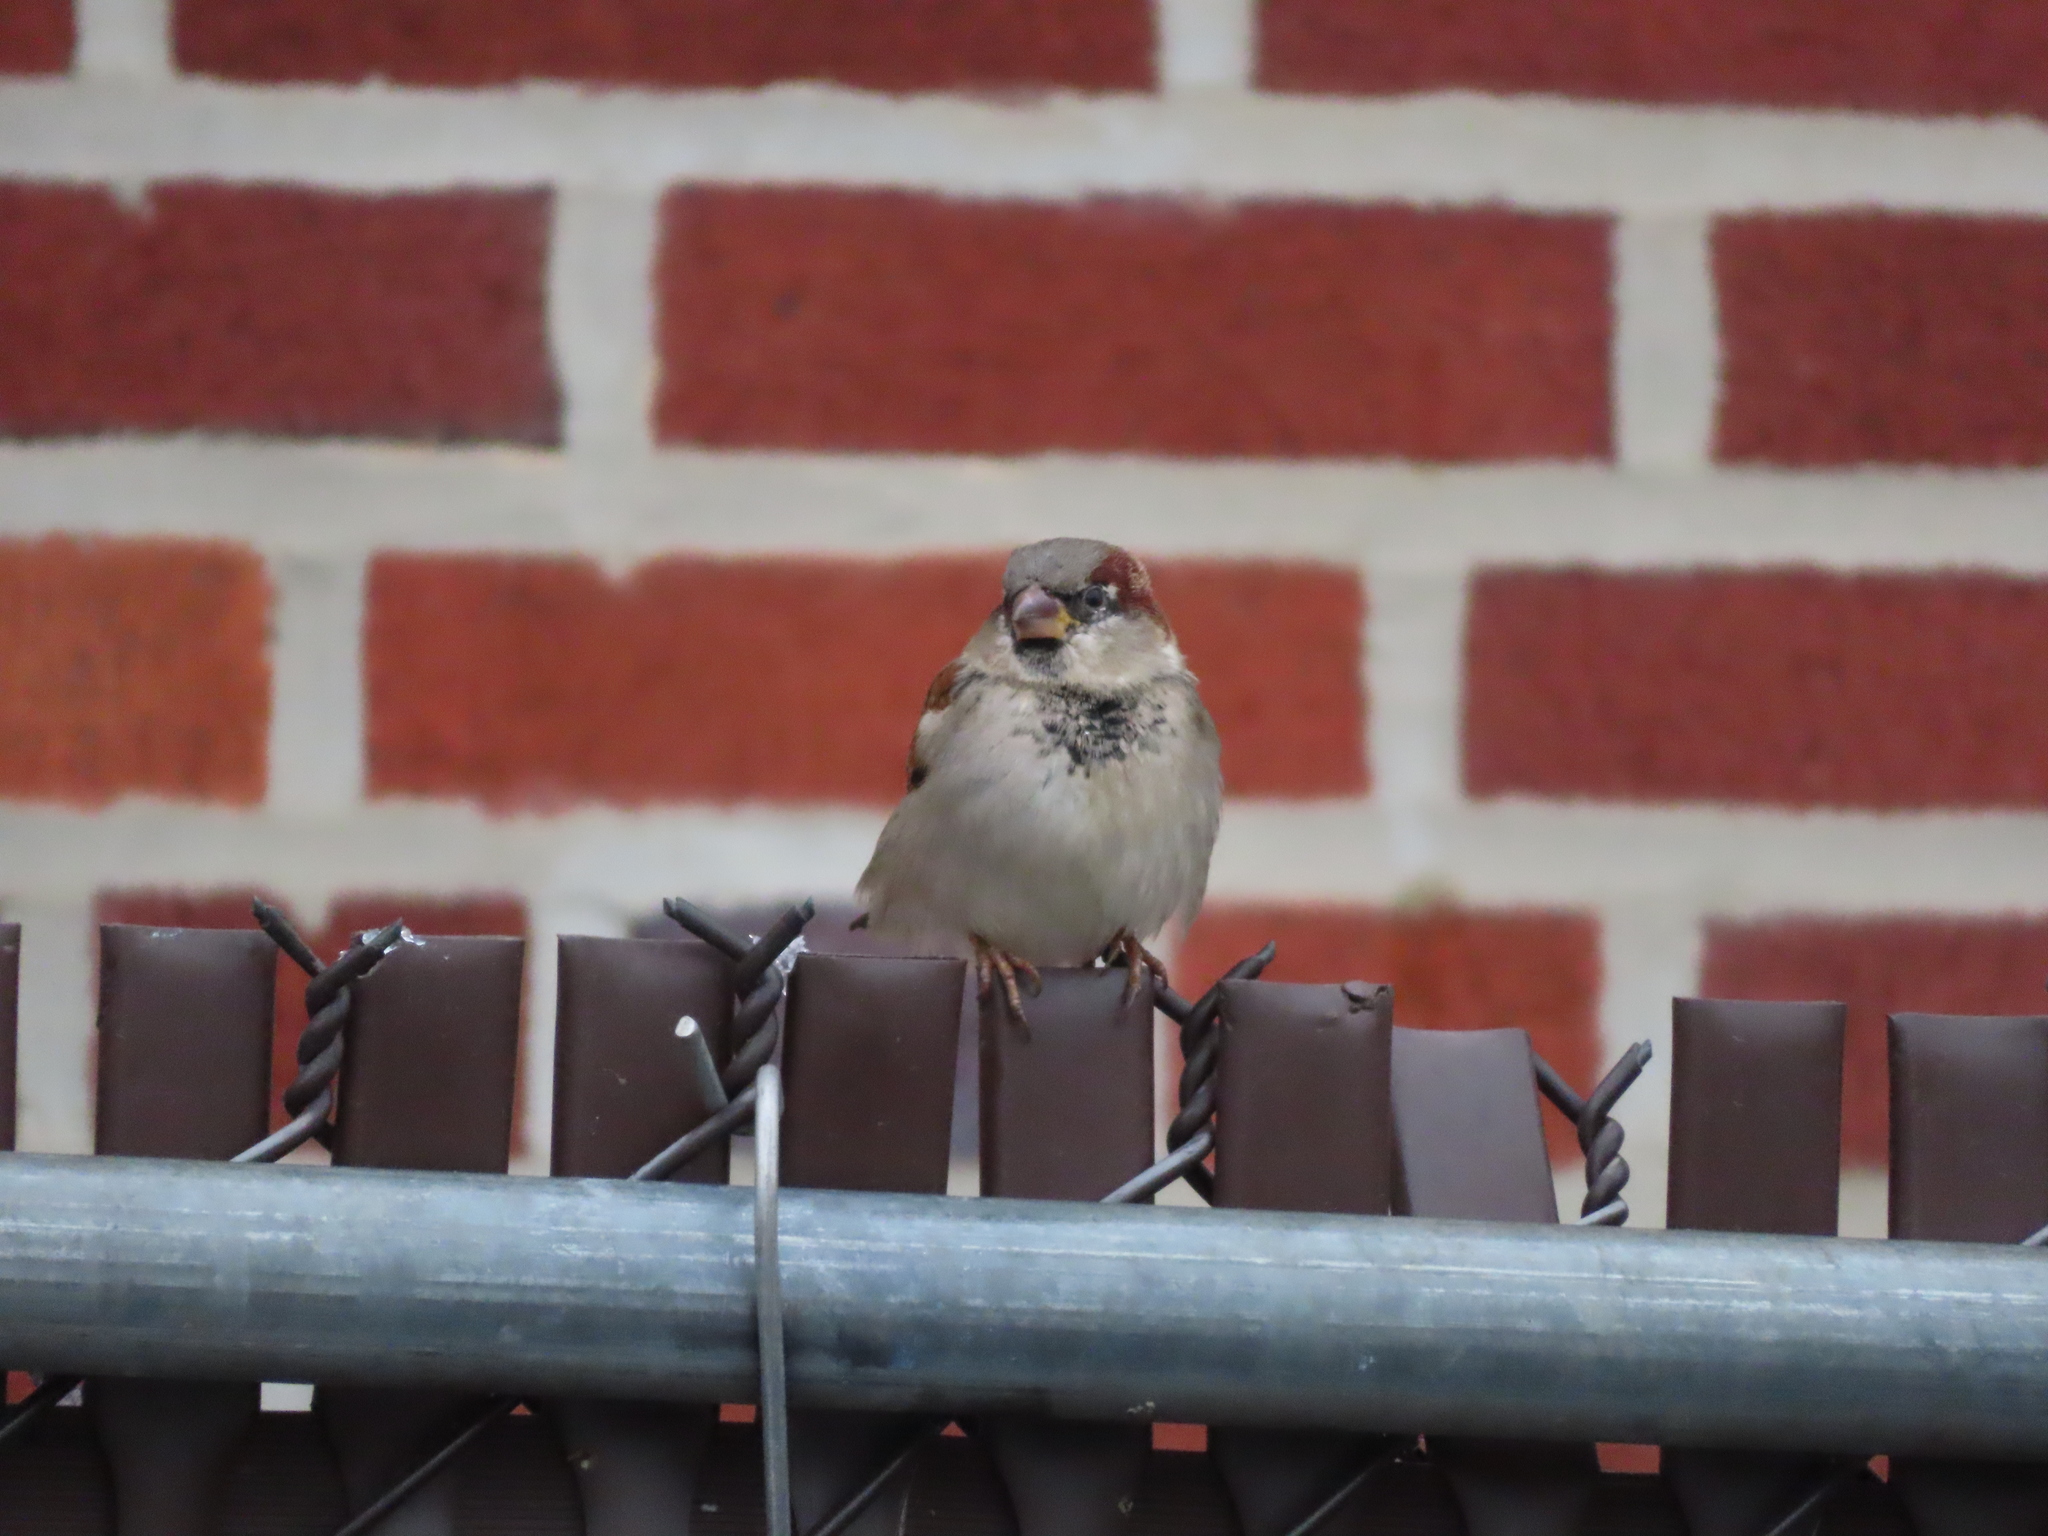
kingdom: Animalia
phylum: Chordata
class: Aves
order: Passeriformes
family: Passeridae
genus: Passer
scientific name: Passer domesticus
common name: House sparrow
